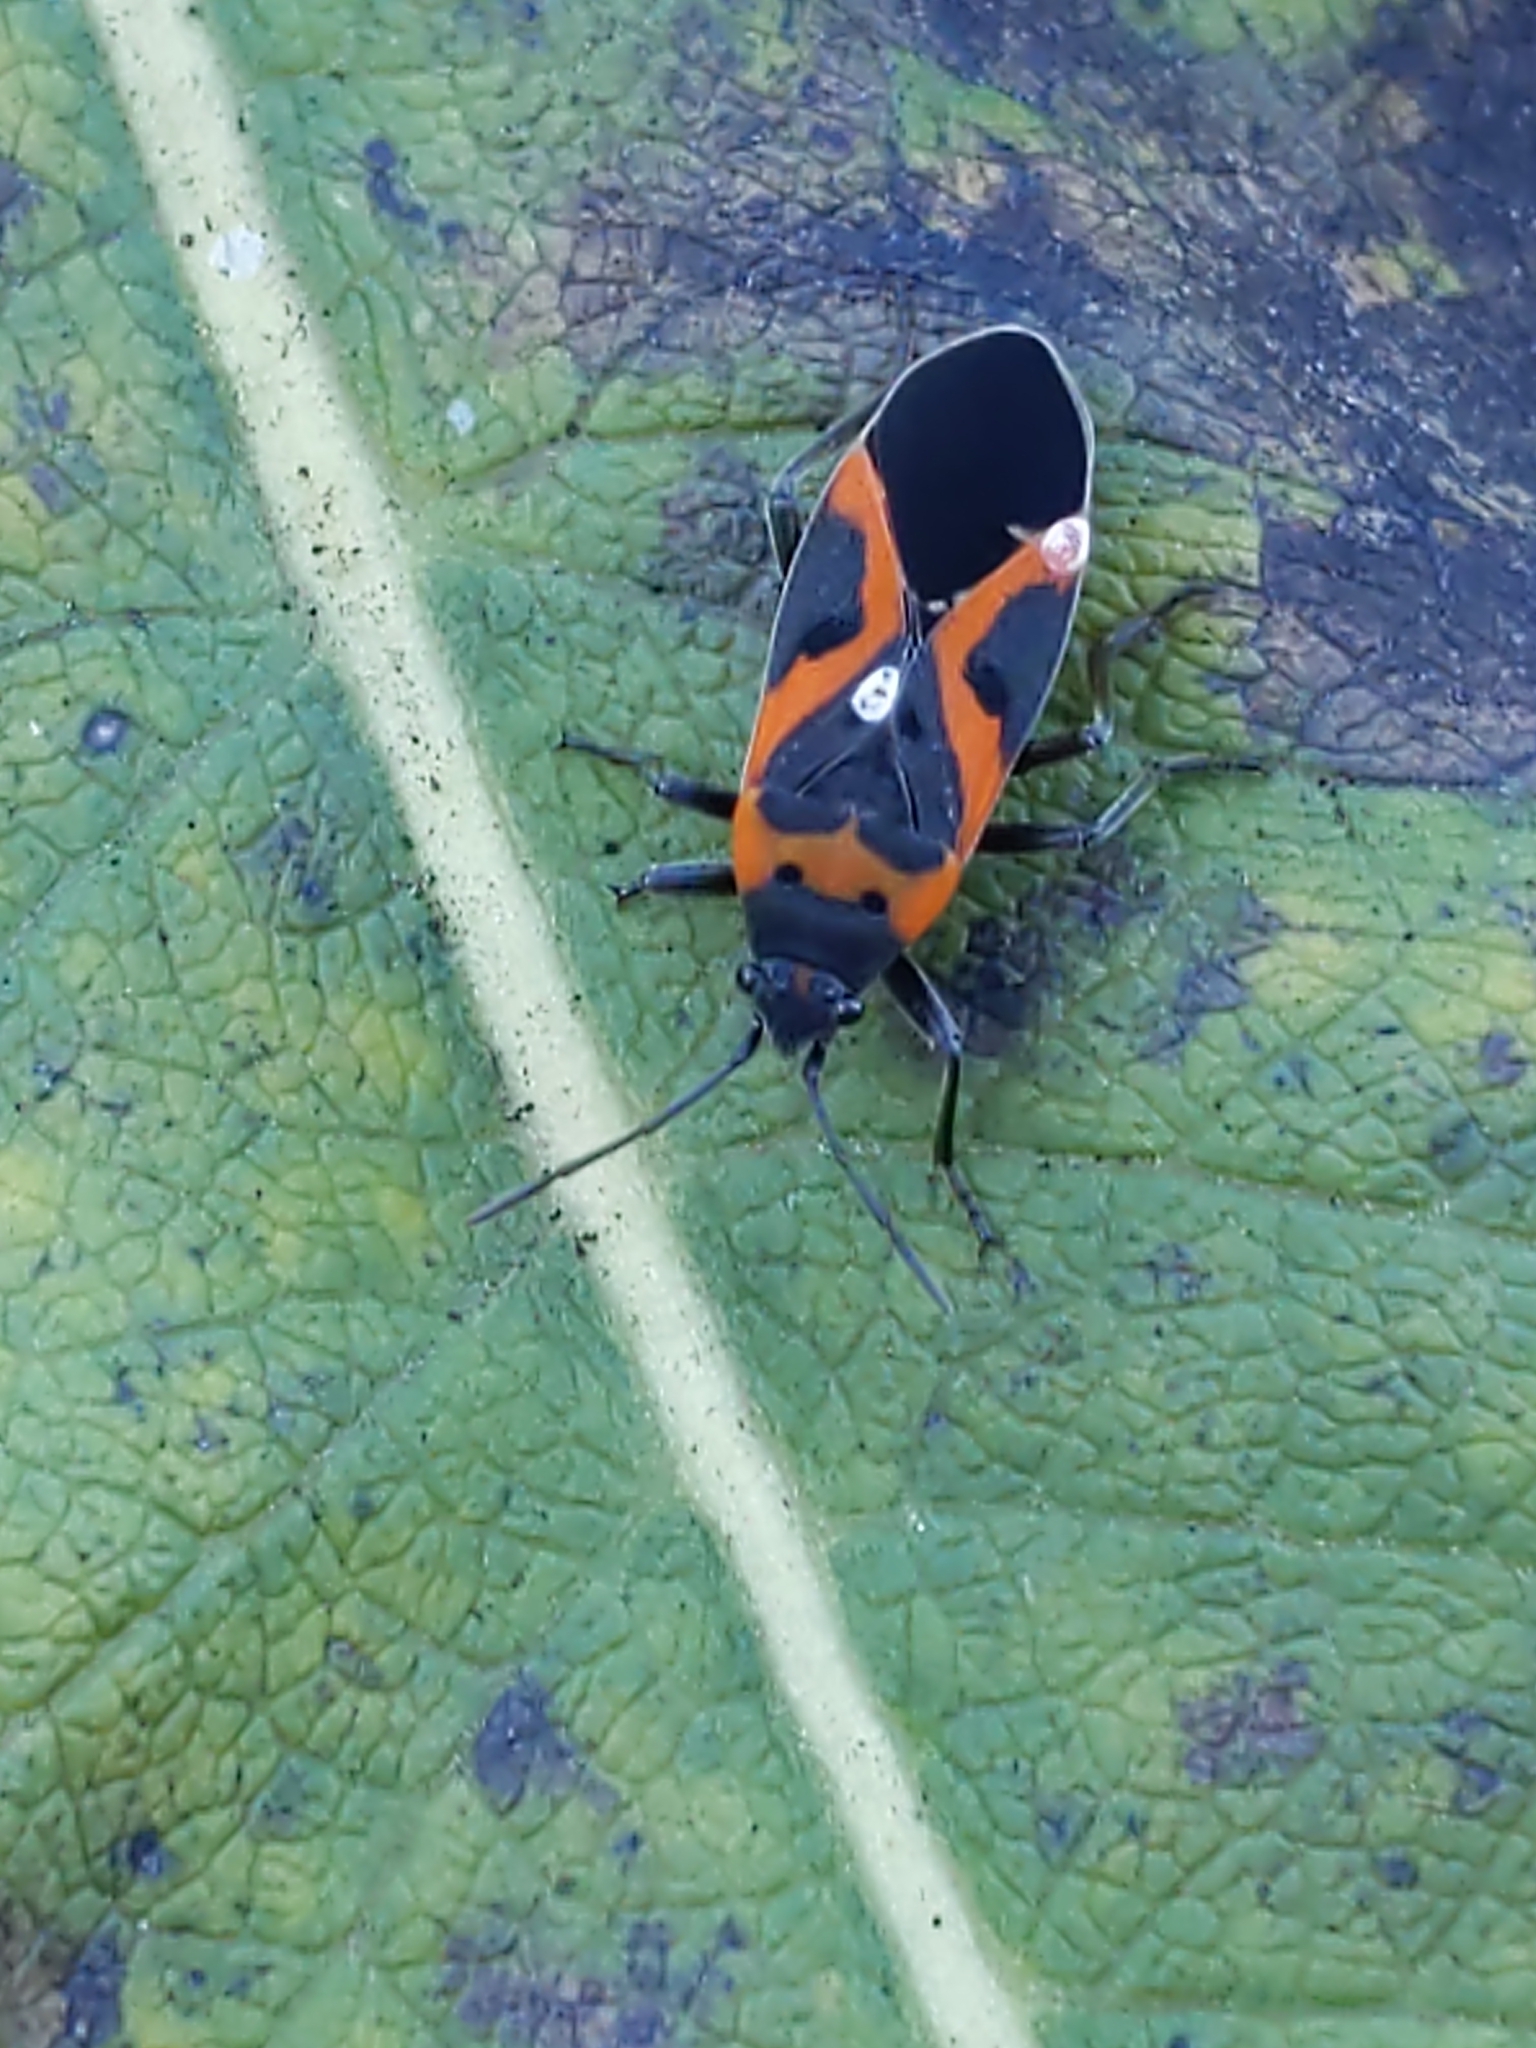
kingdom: Animalia
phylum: Arthropoda
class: Insecta
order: Hemiptera
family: Lygaeidae
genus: Lygaeus
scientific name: Lygaeus kalmii
